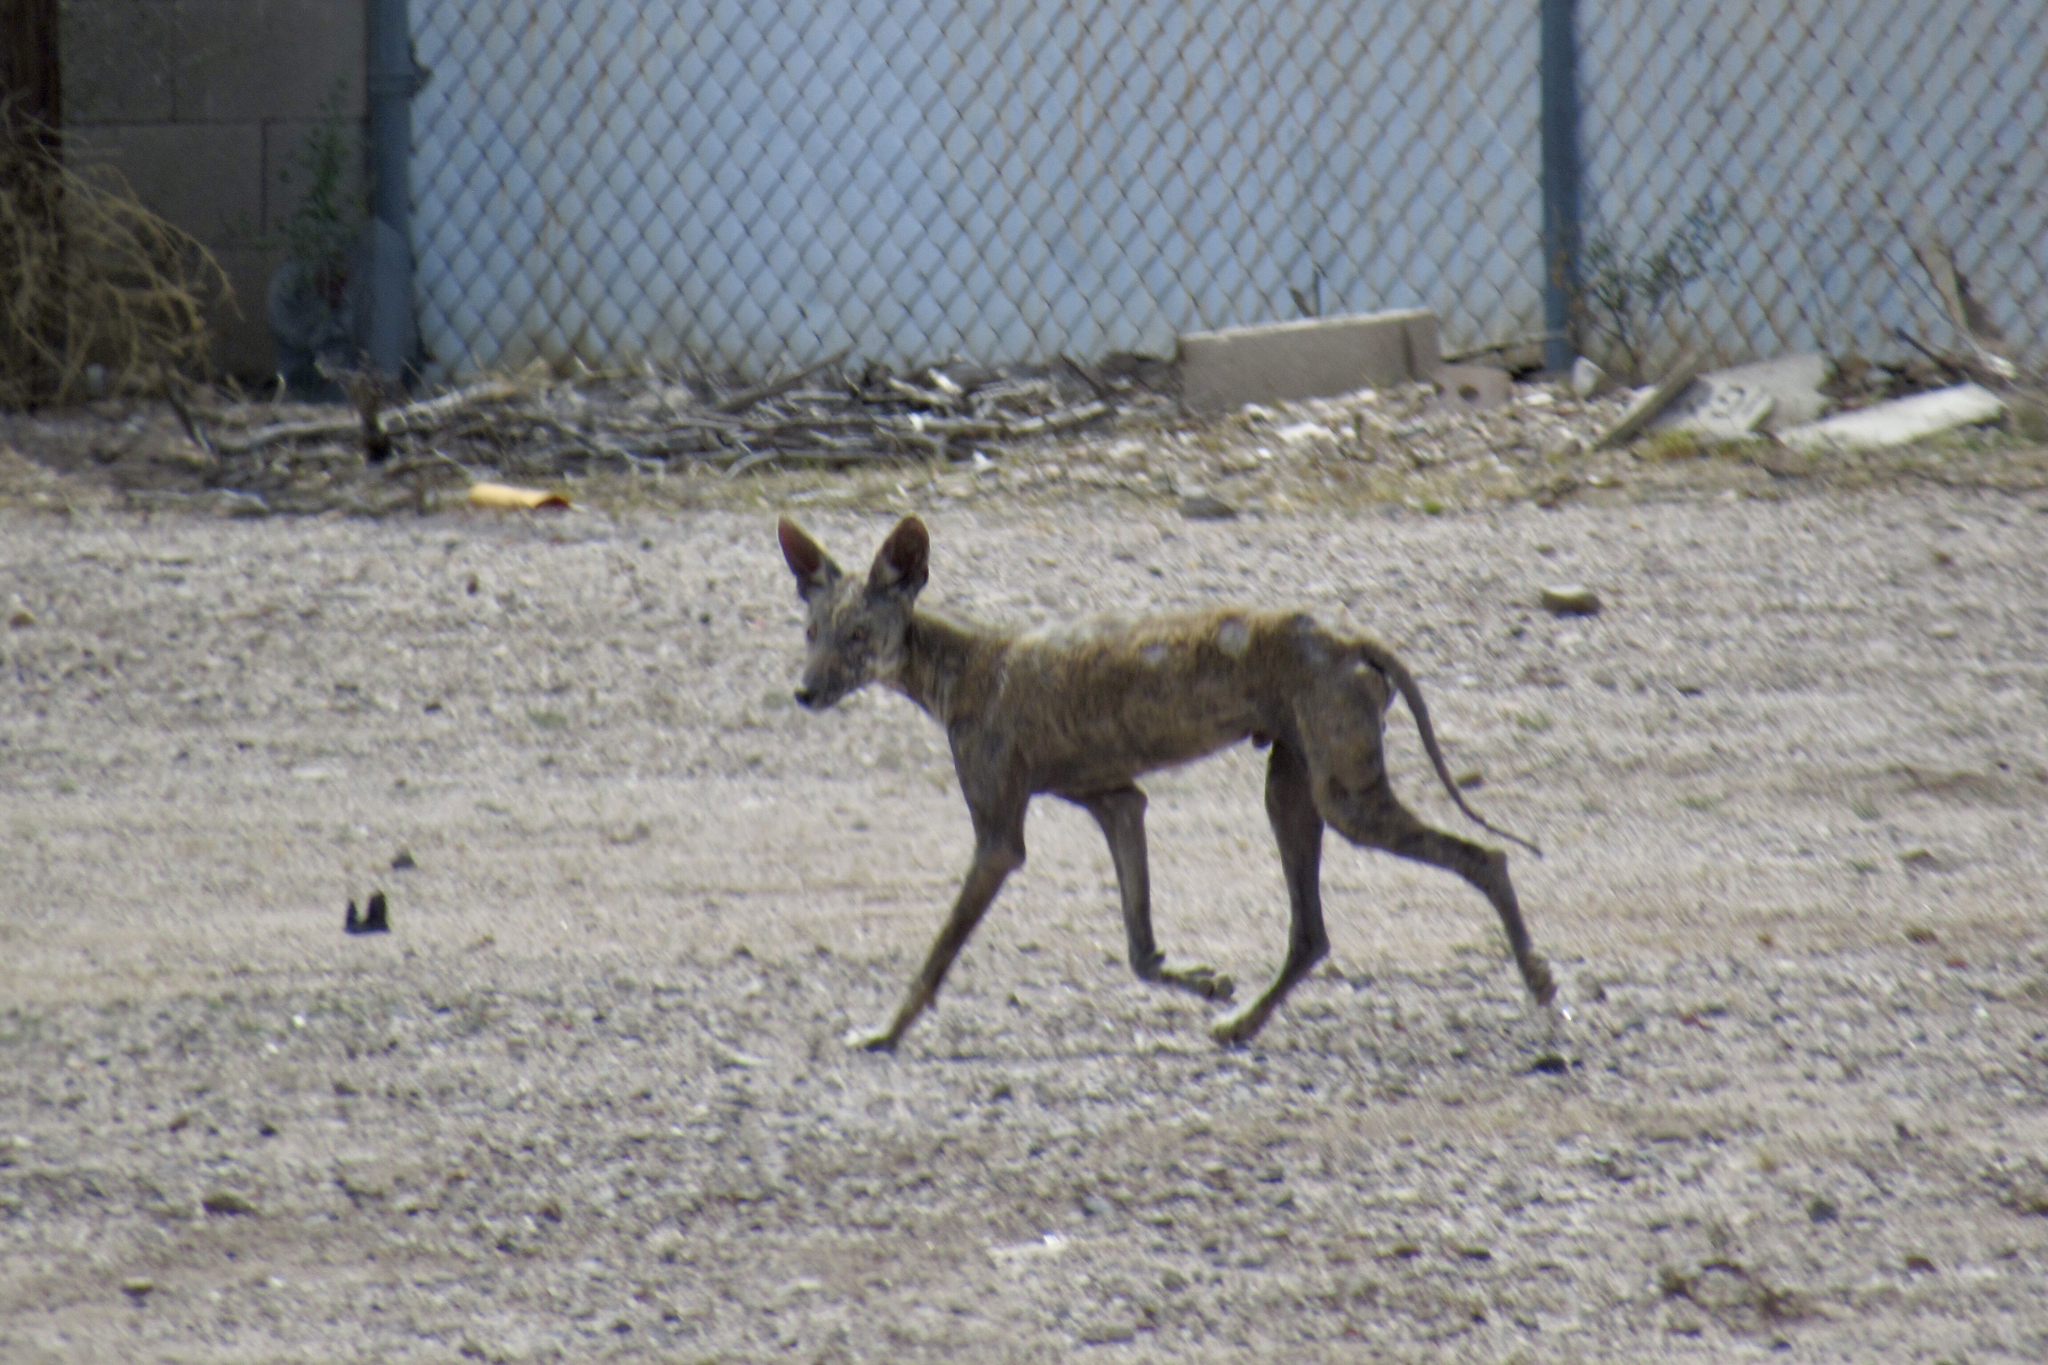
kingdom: Animalia
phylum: Chordata
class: Mammalia
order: Carnivora
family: Canidae
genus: Canis
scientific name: Canis latrans
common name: Coyote
